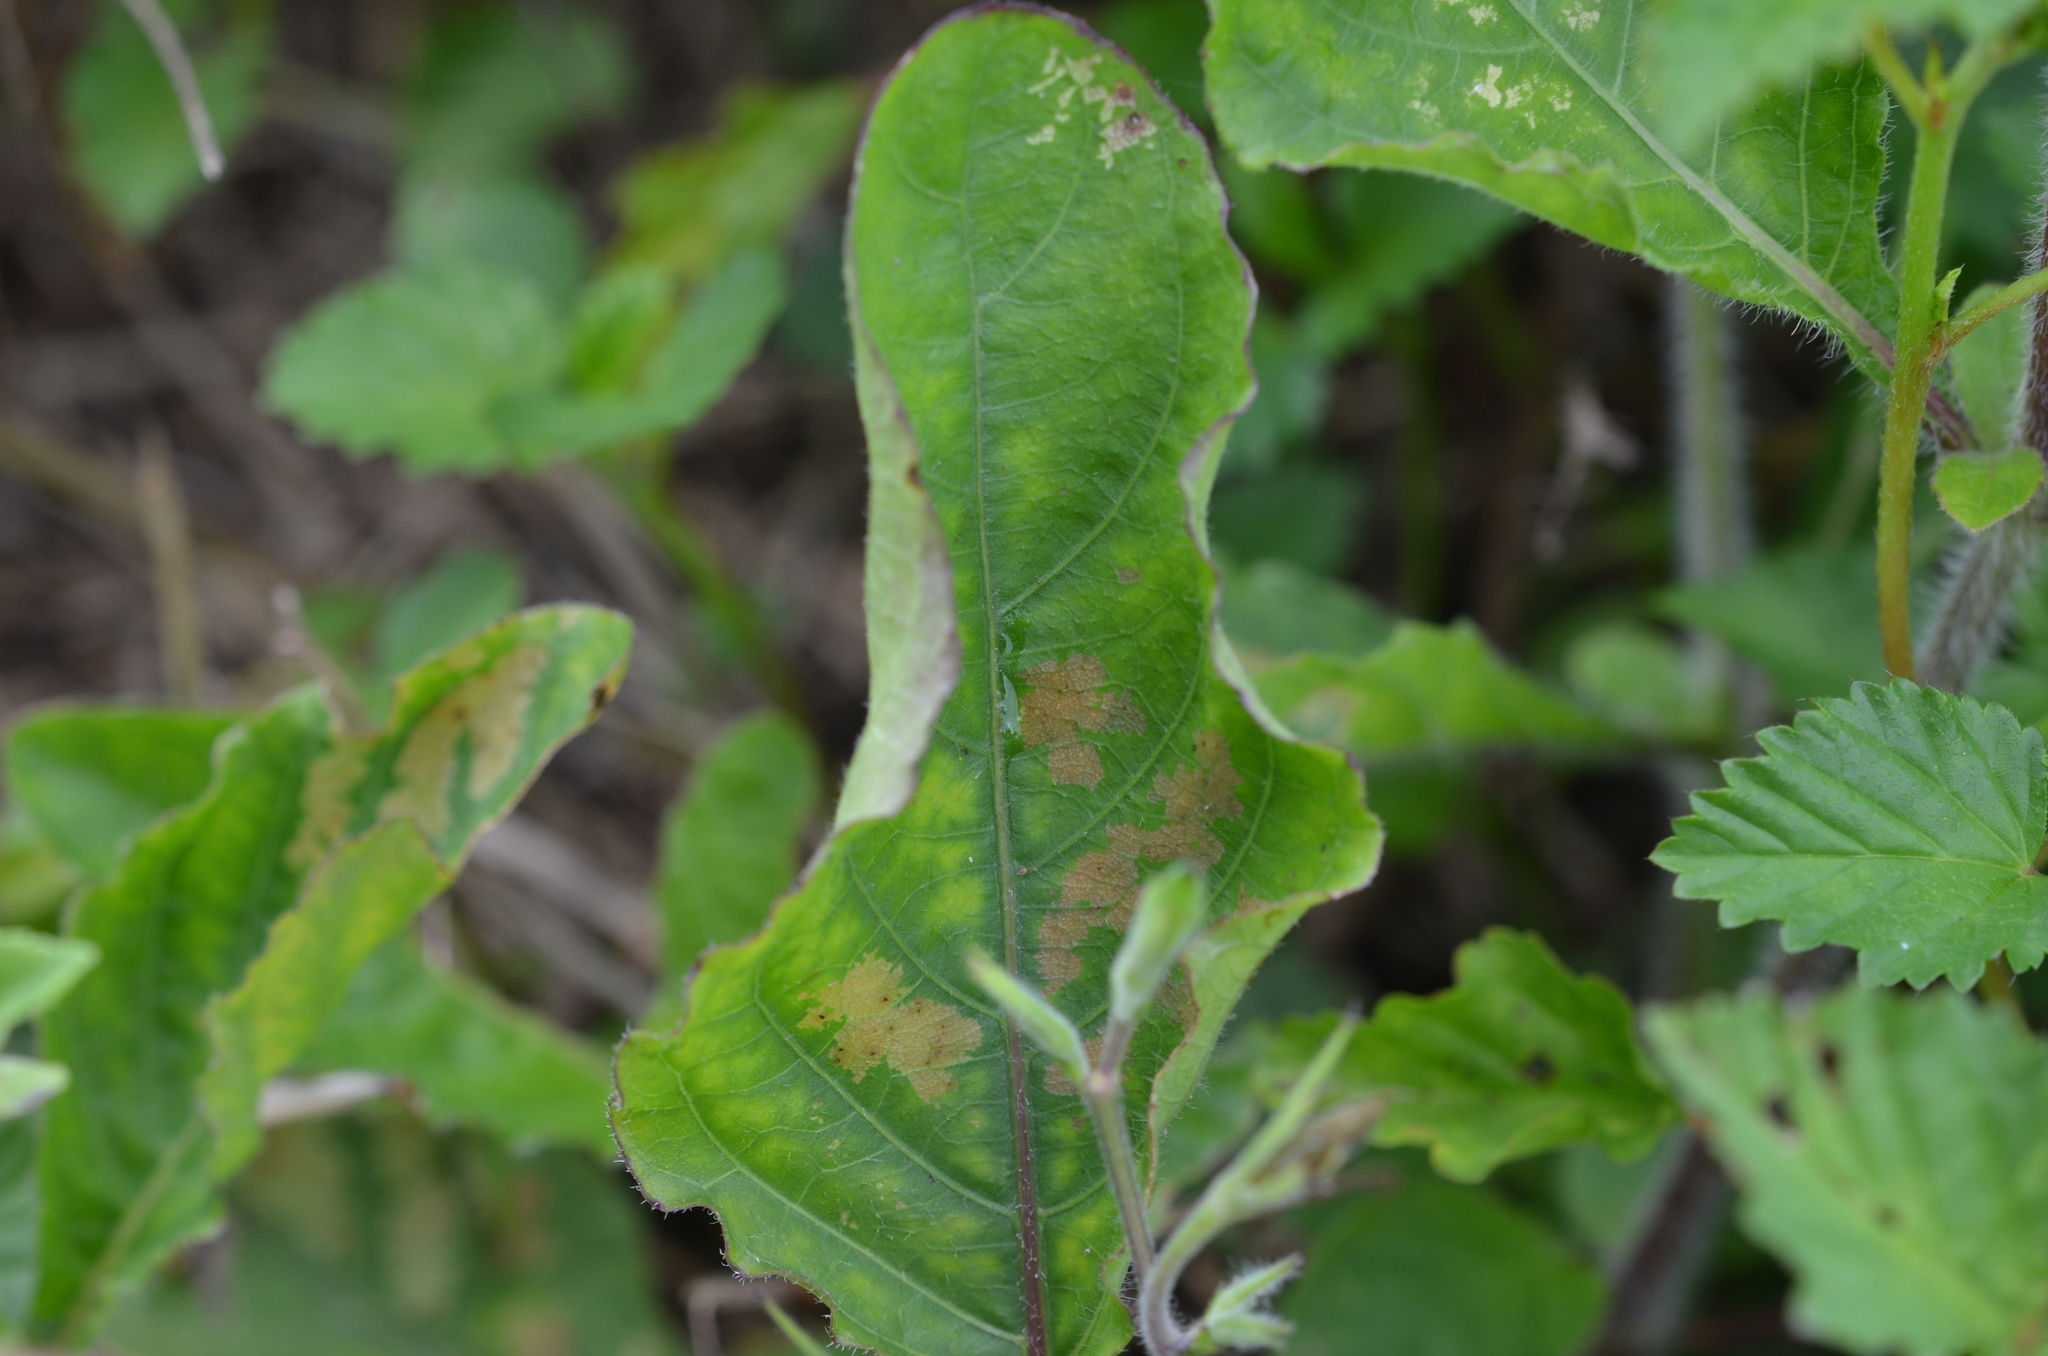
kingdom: Plantae
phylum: Tracheophyta
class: Magnoliopsida
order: Lamiales
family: Acanthaceae
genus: Ruellia
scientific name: Ruellia ciliatiflora
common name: Hairyflower wild petunia
